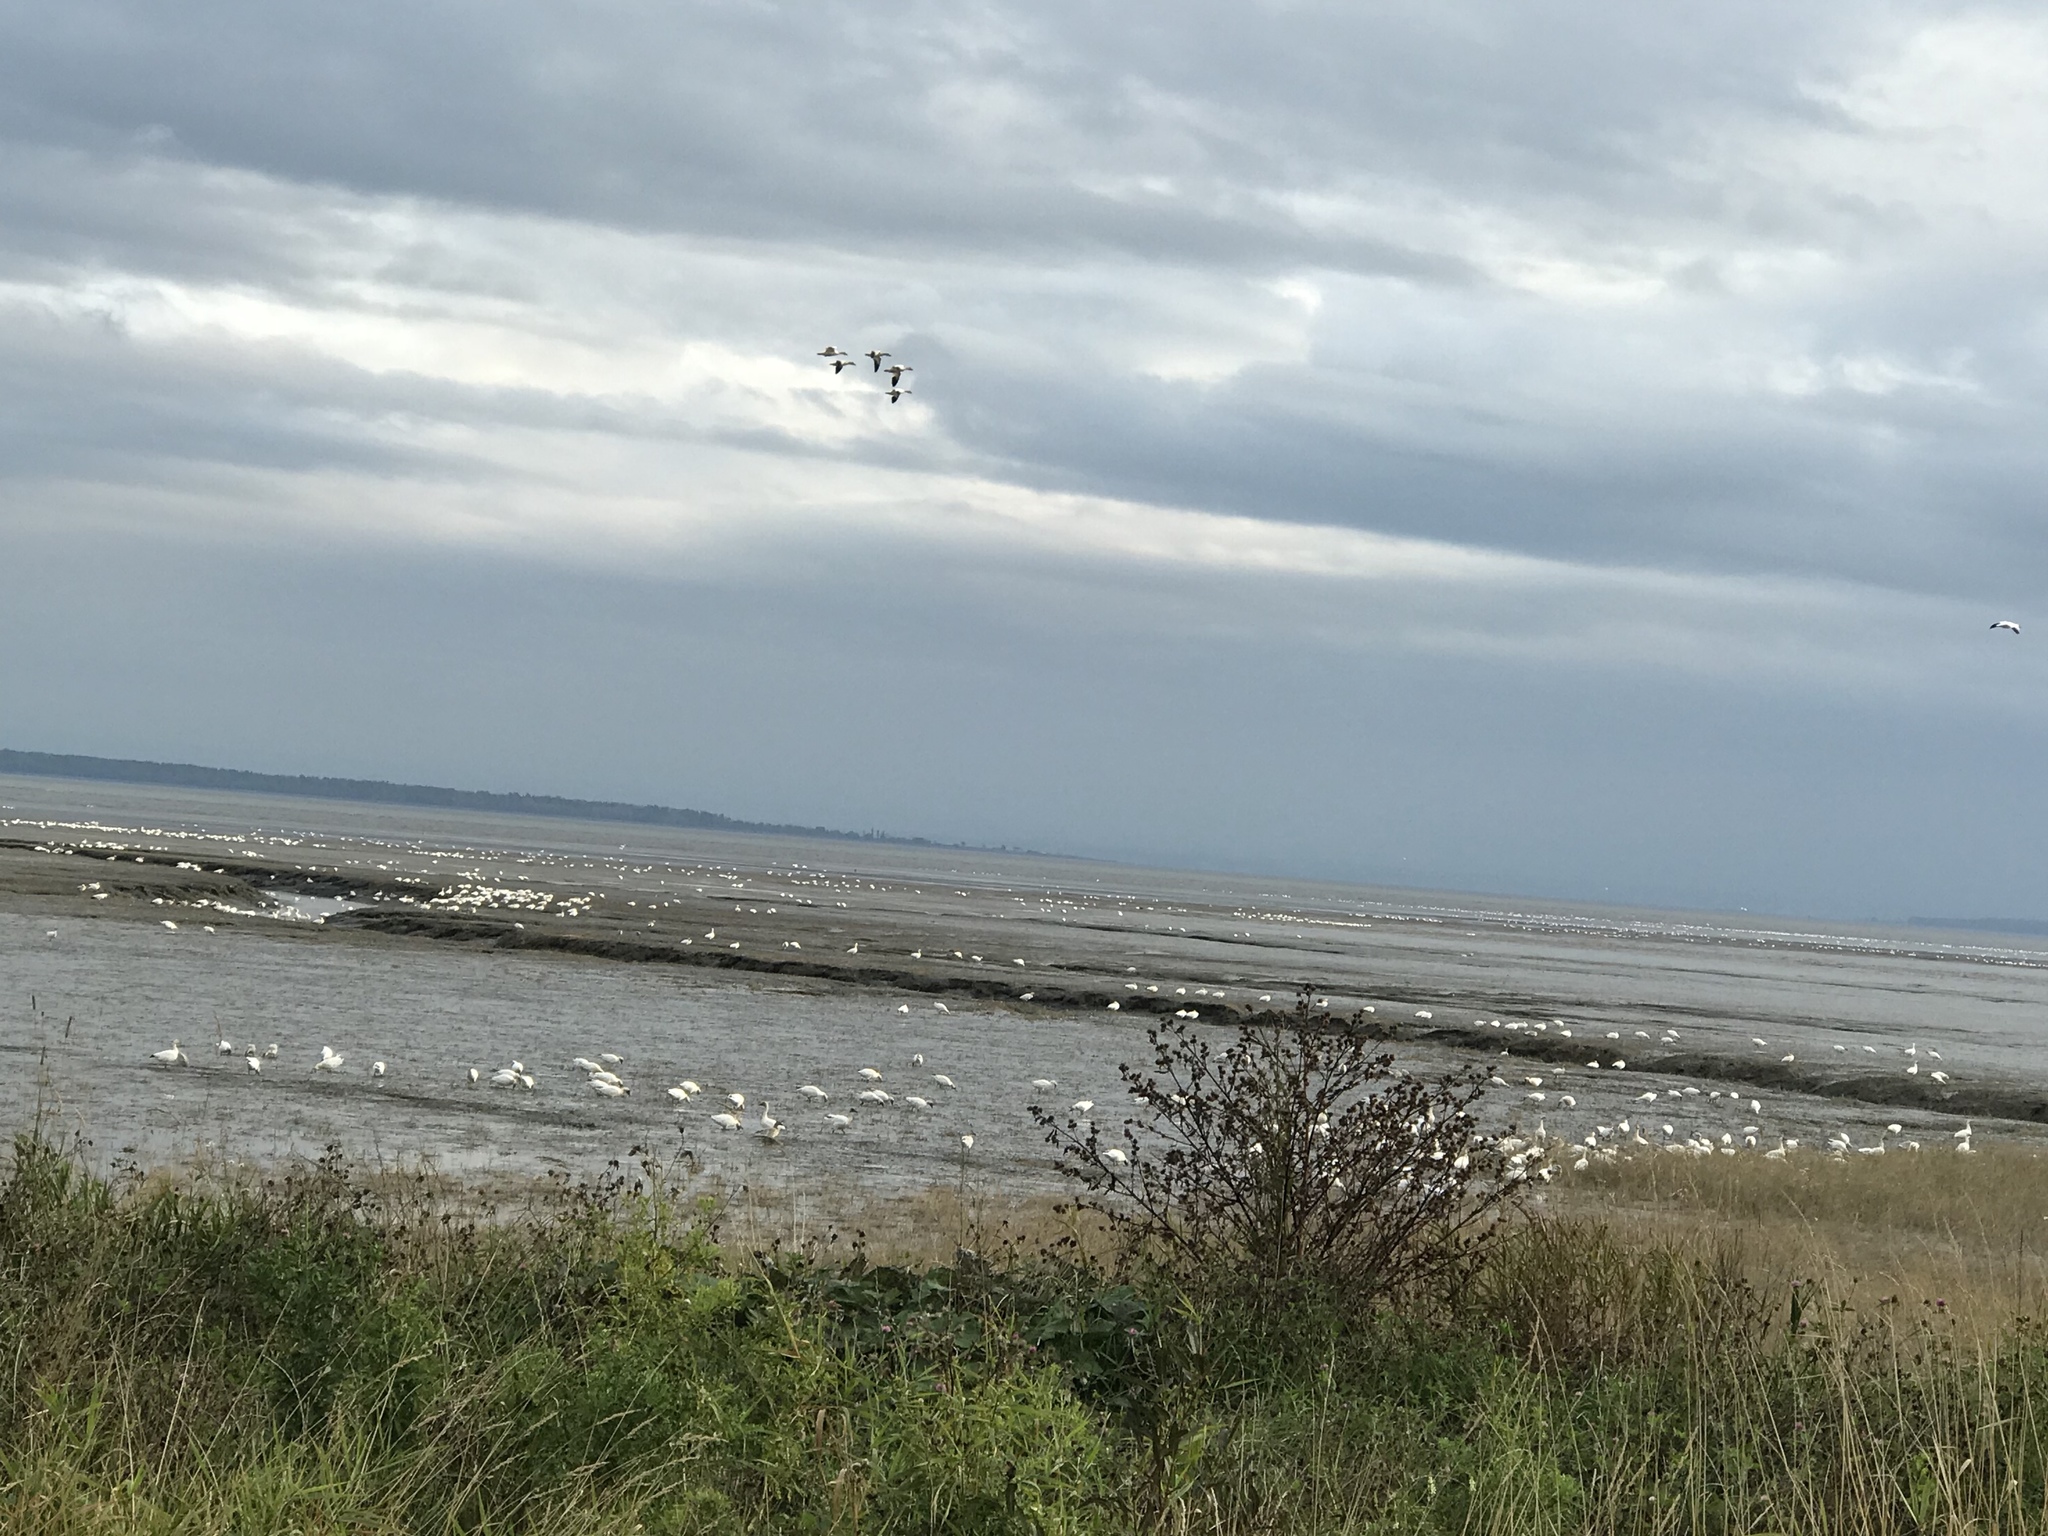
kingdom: Animalia
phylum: Chordata
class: Aves
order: Anseriformes
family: Anatidae
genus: Anser
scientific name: Anser caerulescens
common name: Snow goose
